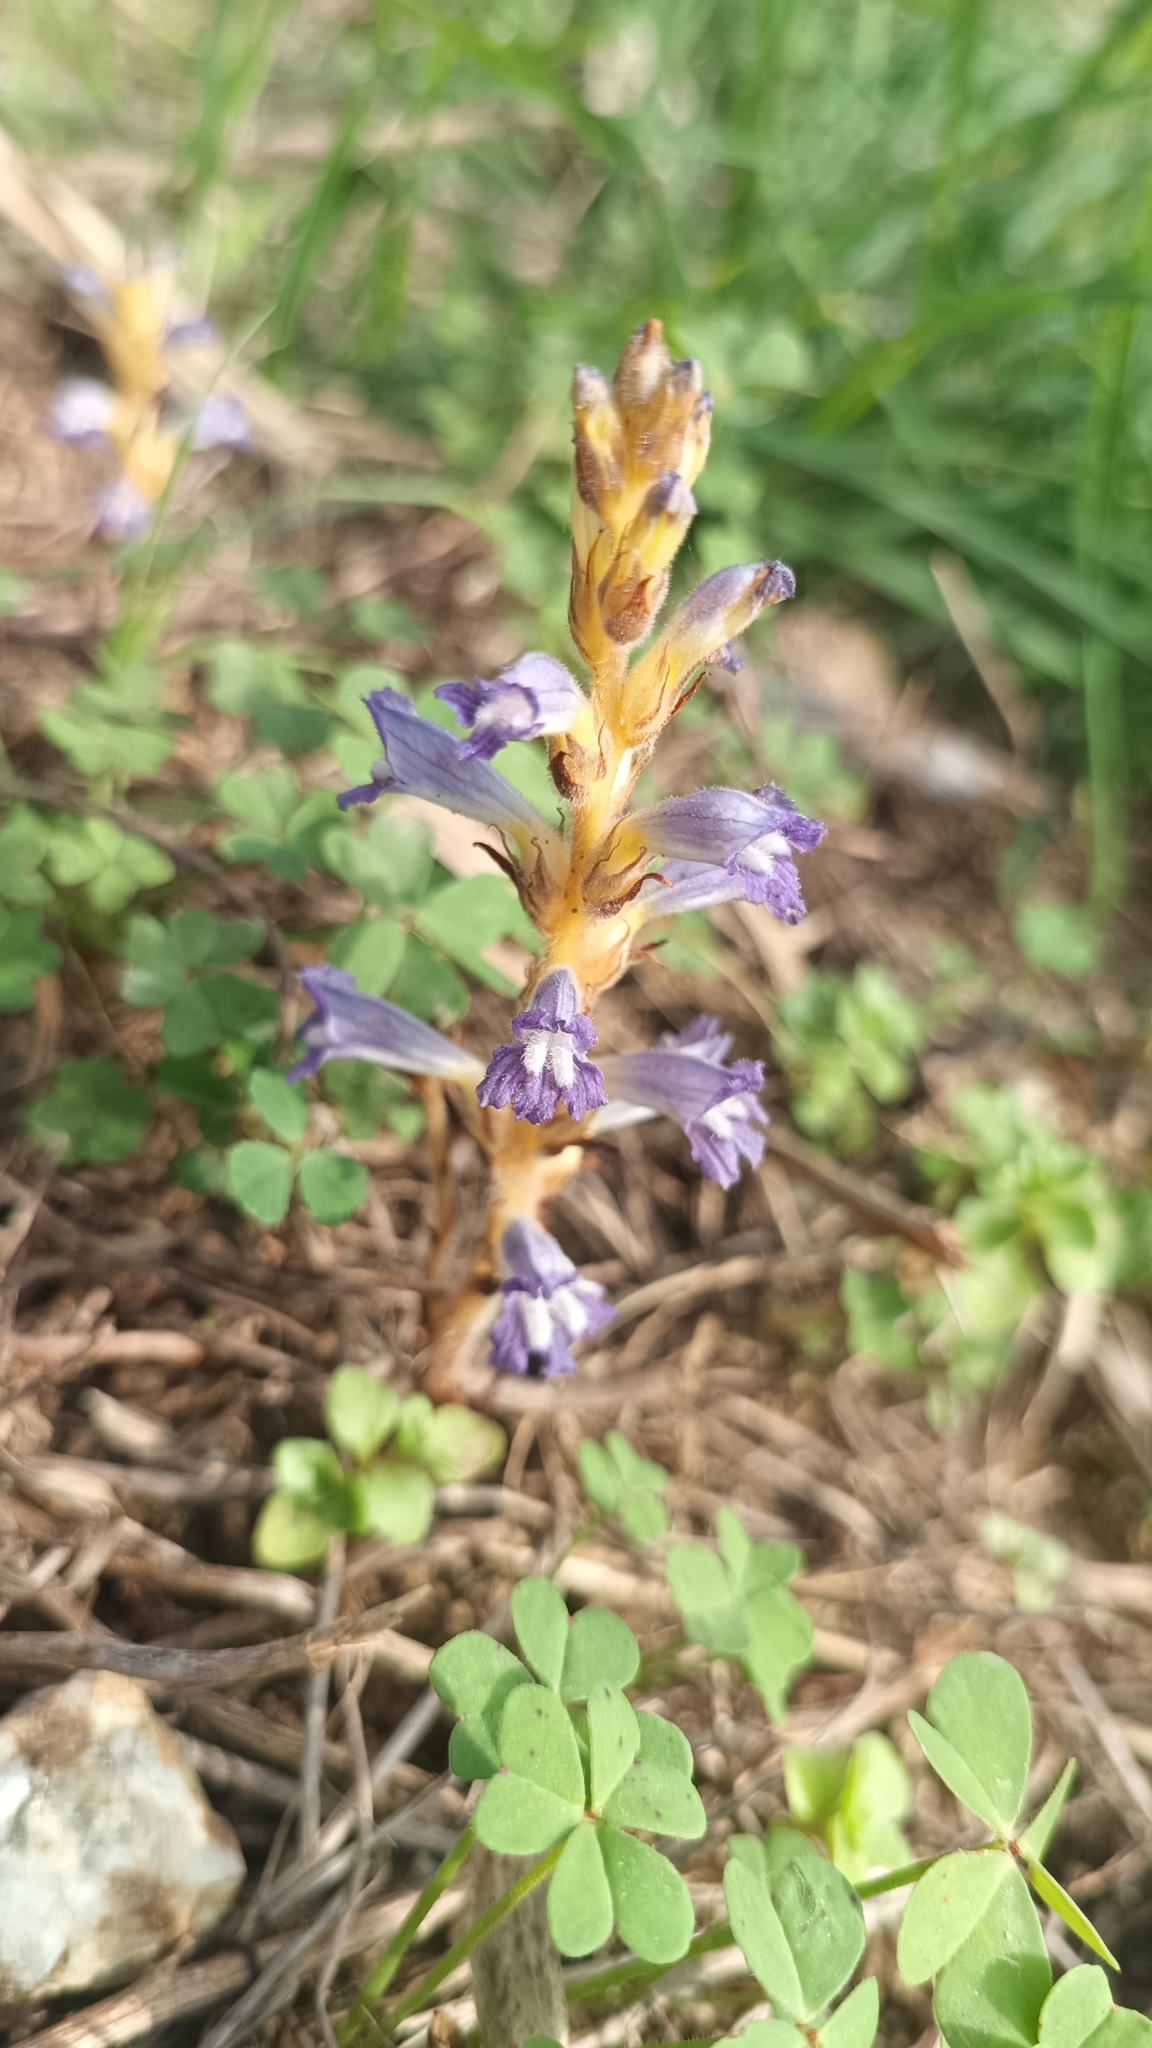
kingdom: Plantae
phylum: Tracheophyta
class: Magnoliopsida
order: Lamiales
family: Orobanchaceae
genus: Phelipanche
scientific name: Phelipanche mutelii
